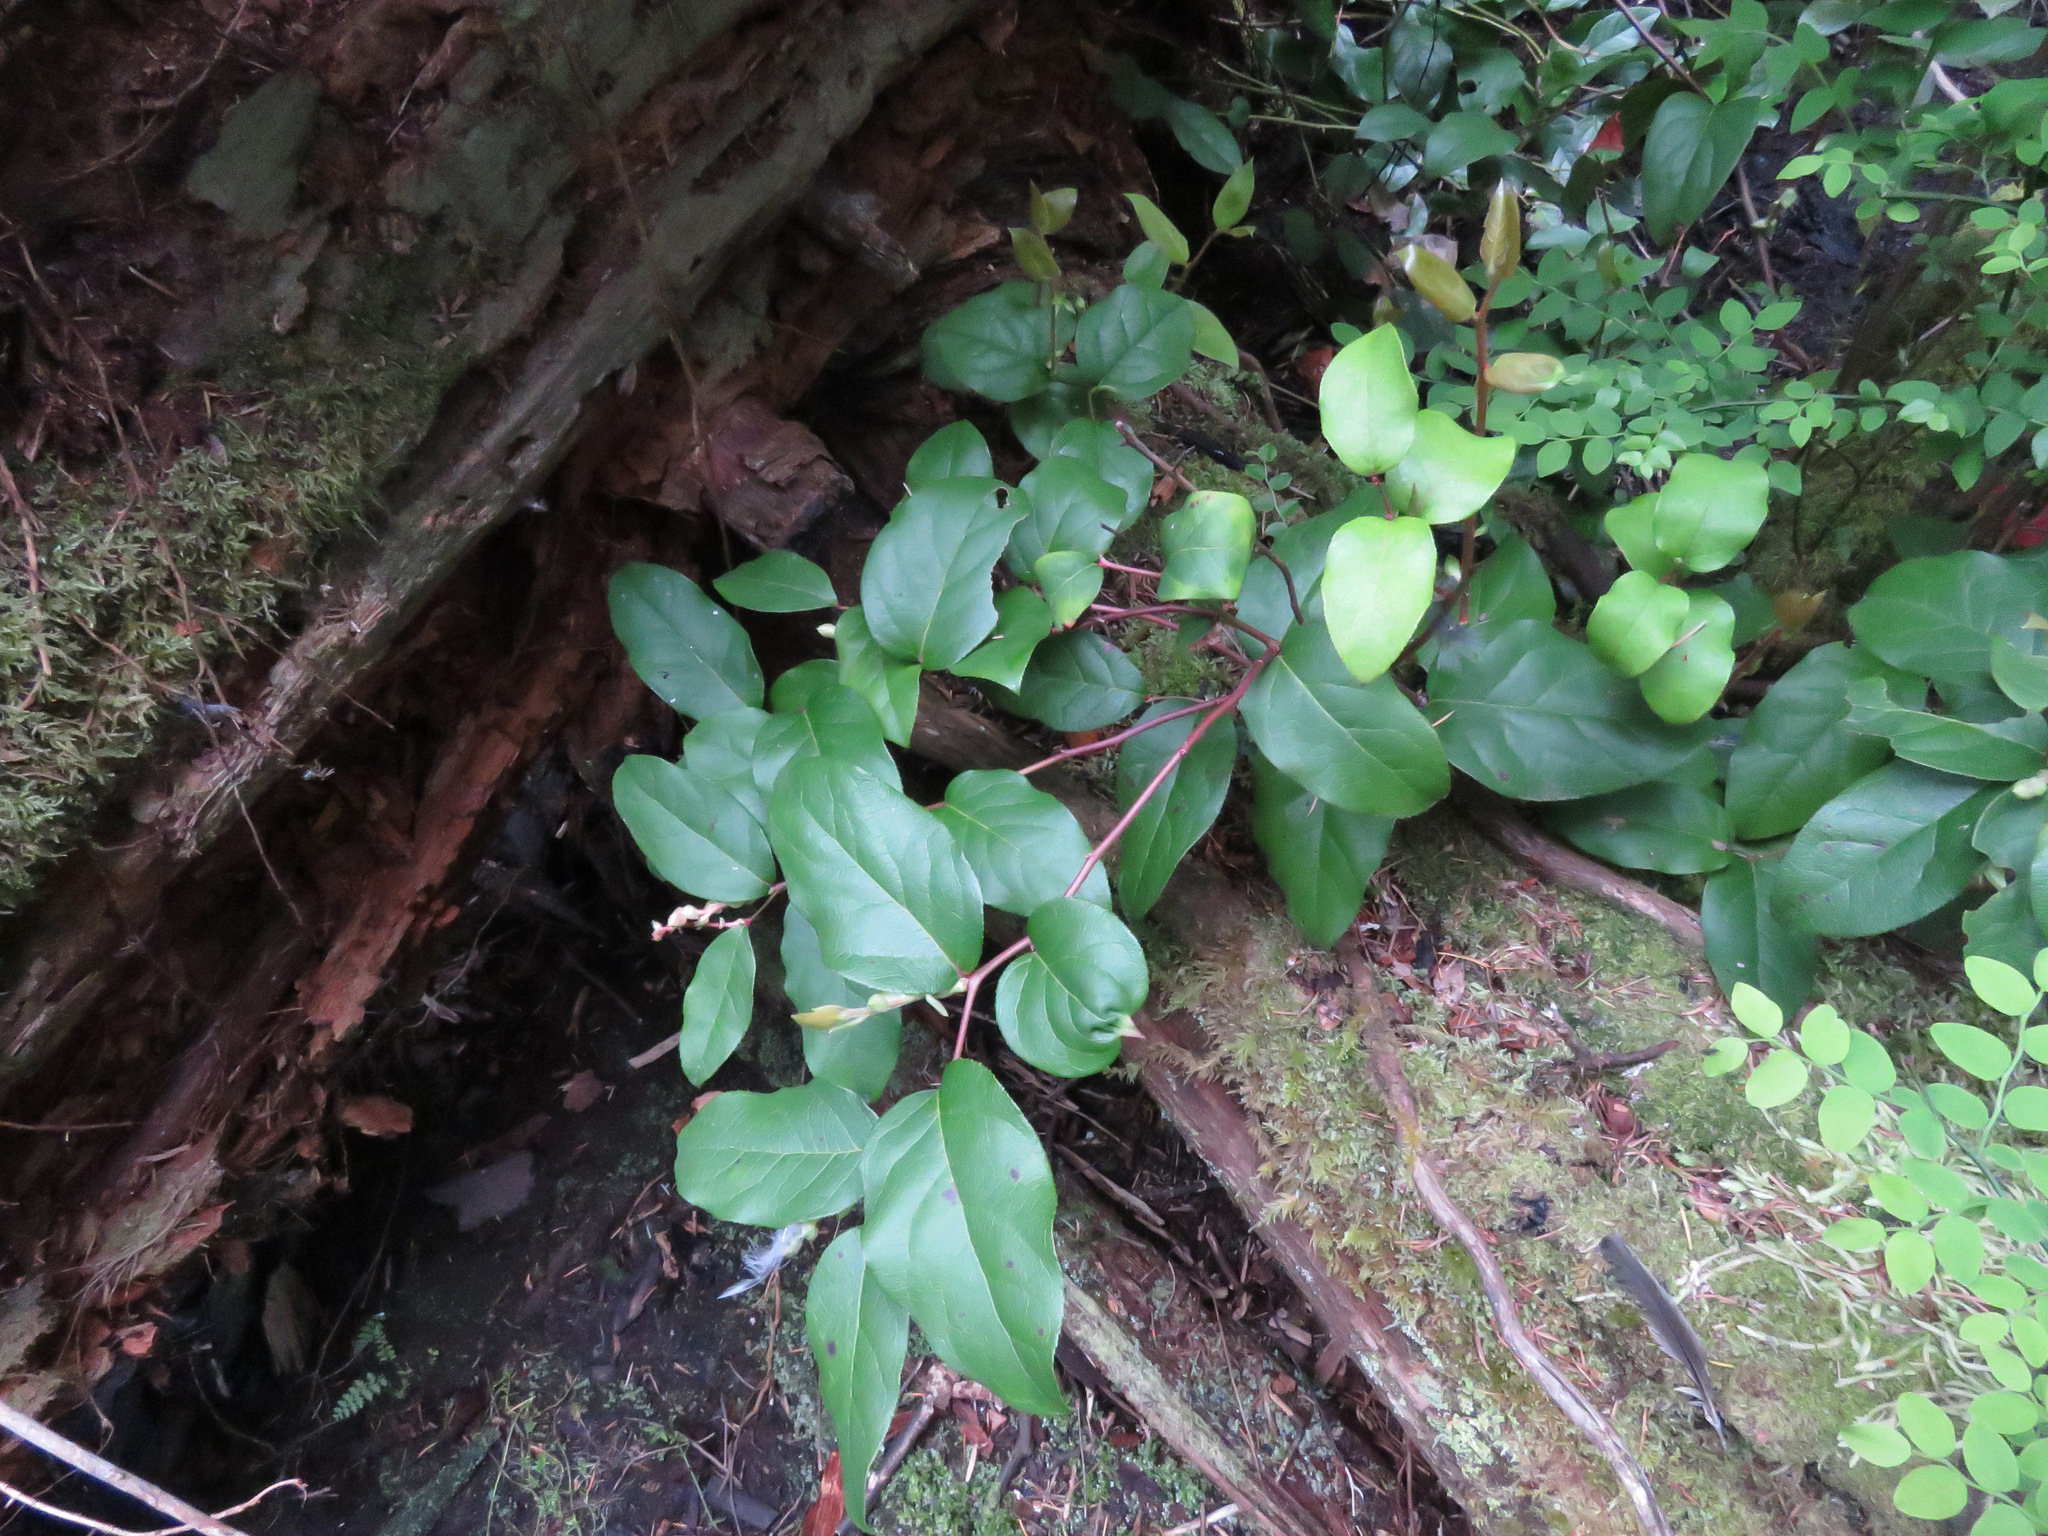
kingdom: Plantae
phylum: Tracheophyta
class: Magnoliopsida
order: Ericales
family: Ericaceae
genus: Gaultheria
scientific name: Gaultheria shallon
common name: Shallon
